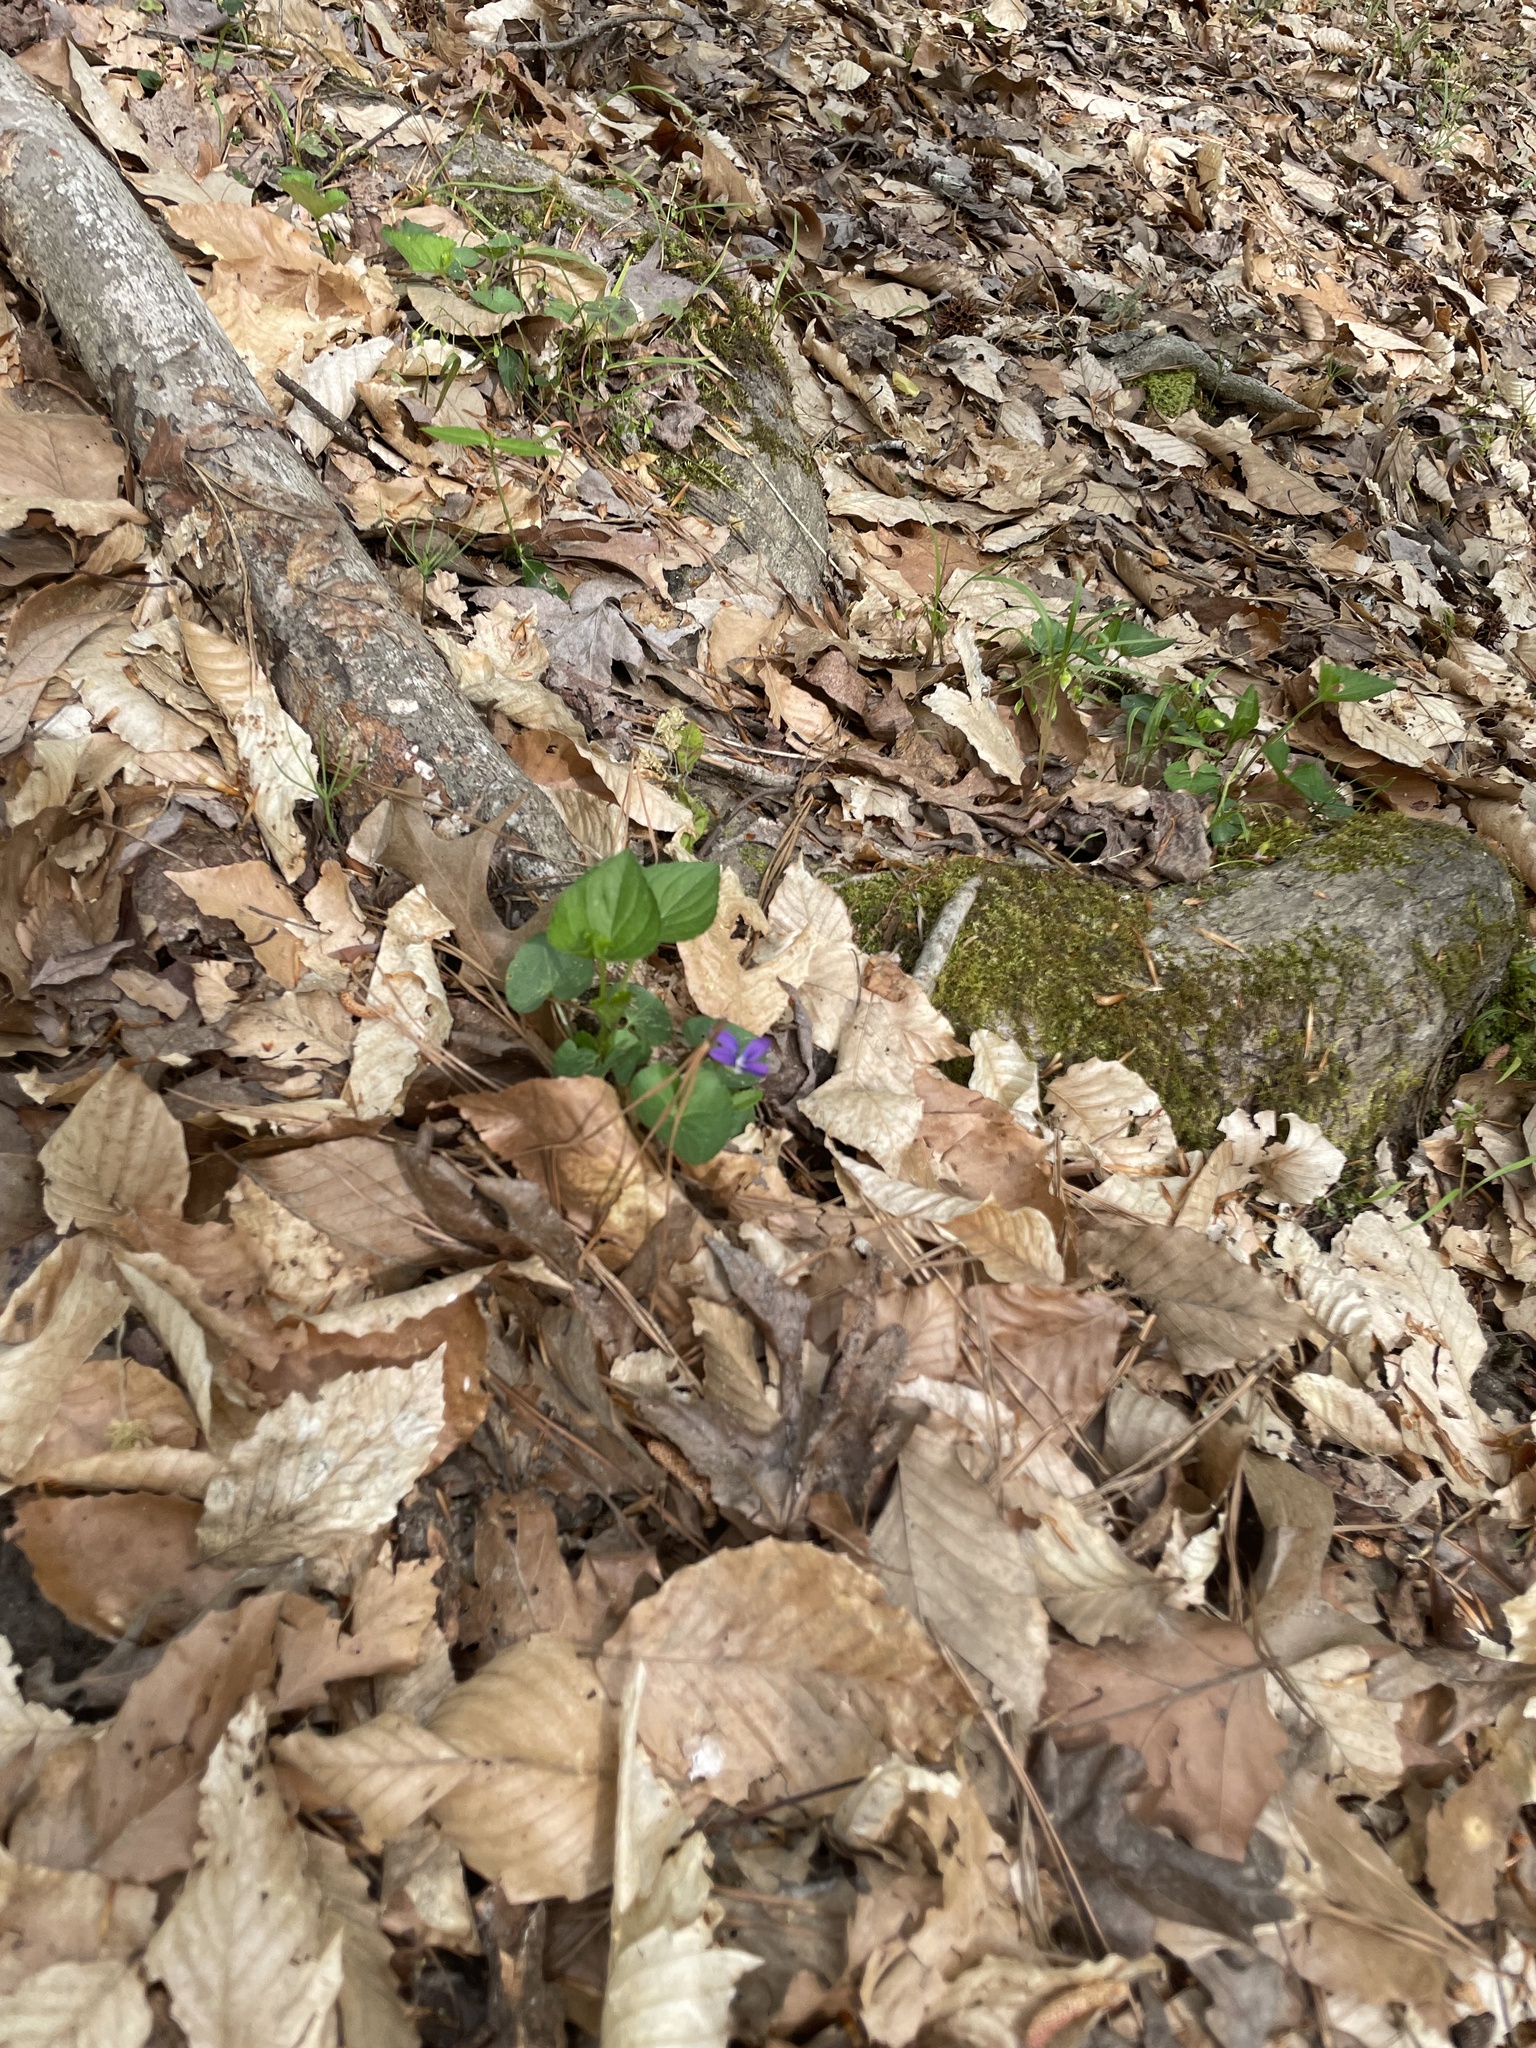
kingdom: Plantae
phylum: Tracheophyta
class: Magnoliopsida
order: Malpighiales
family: Violaceae
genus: Viola
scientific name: Viola sororia
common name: Dooryard violet
